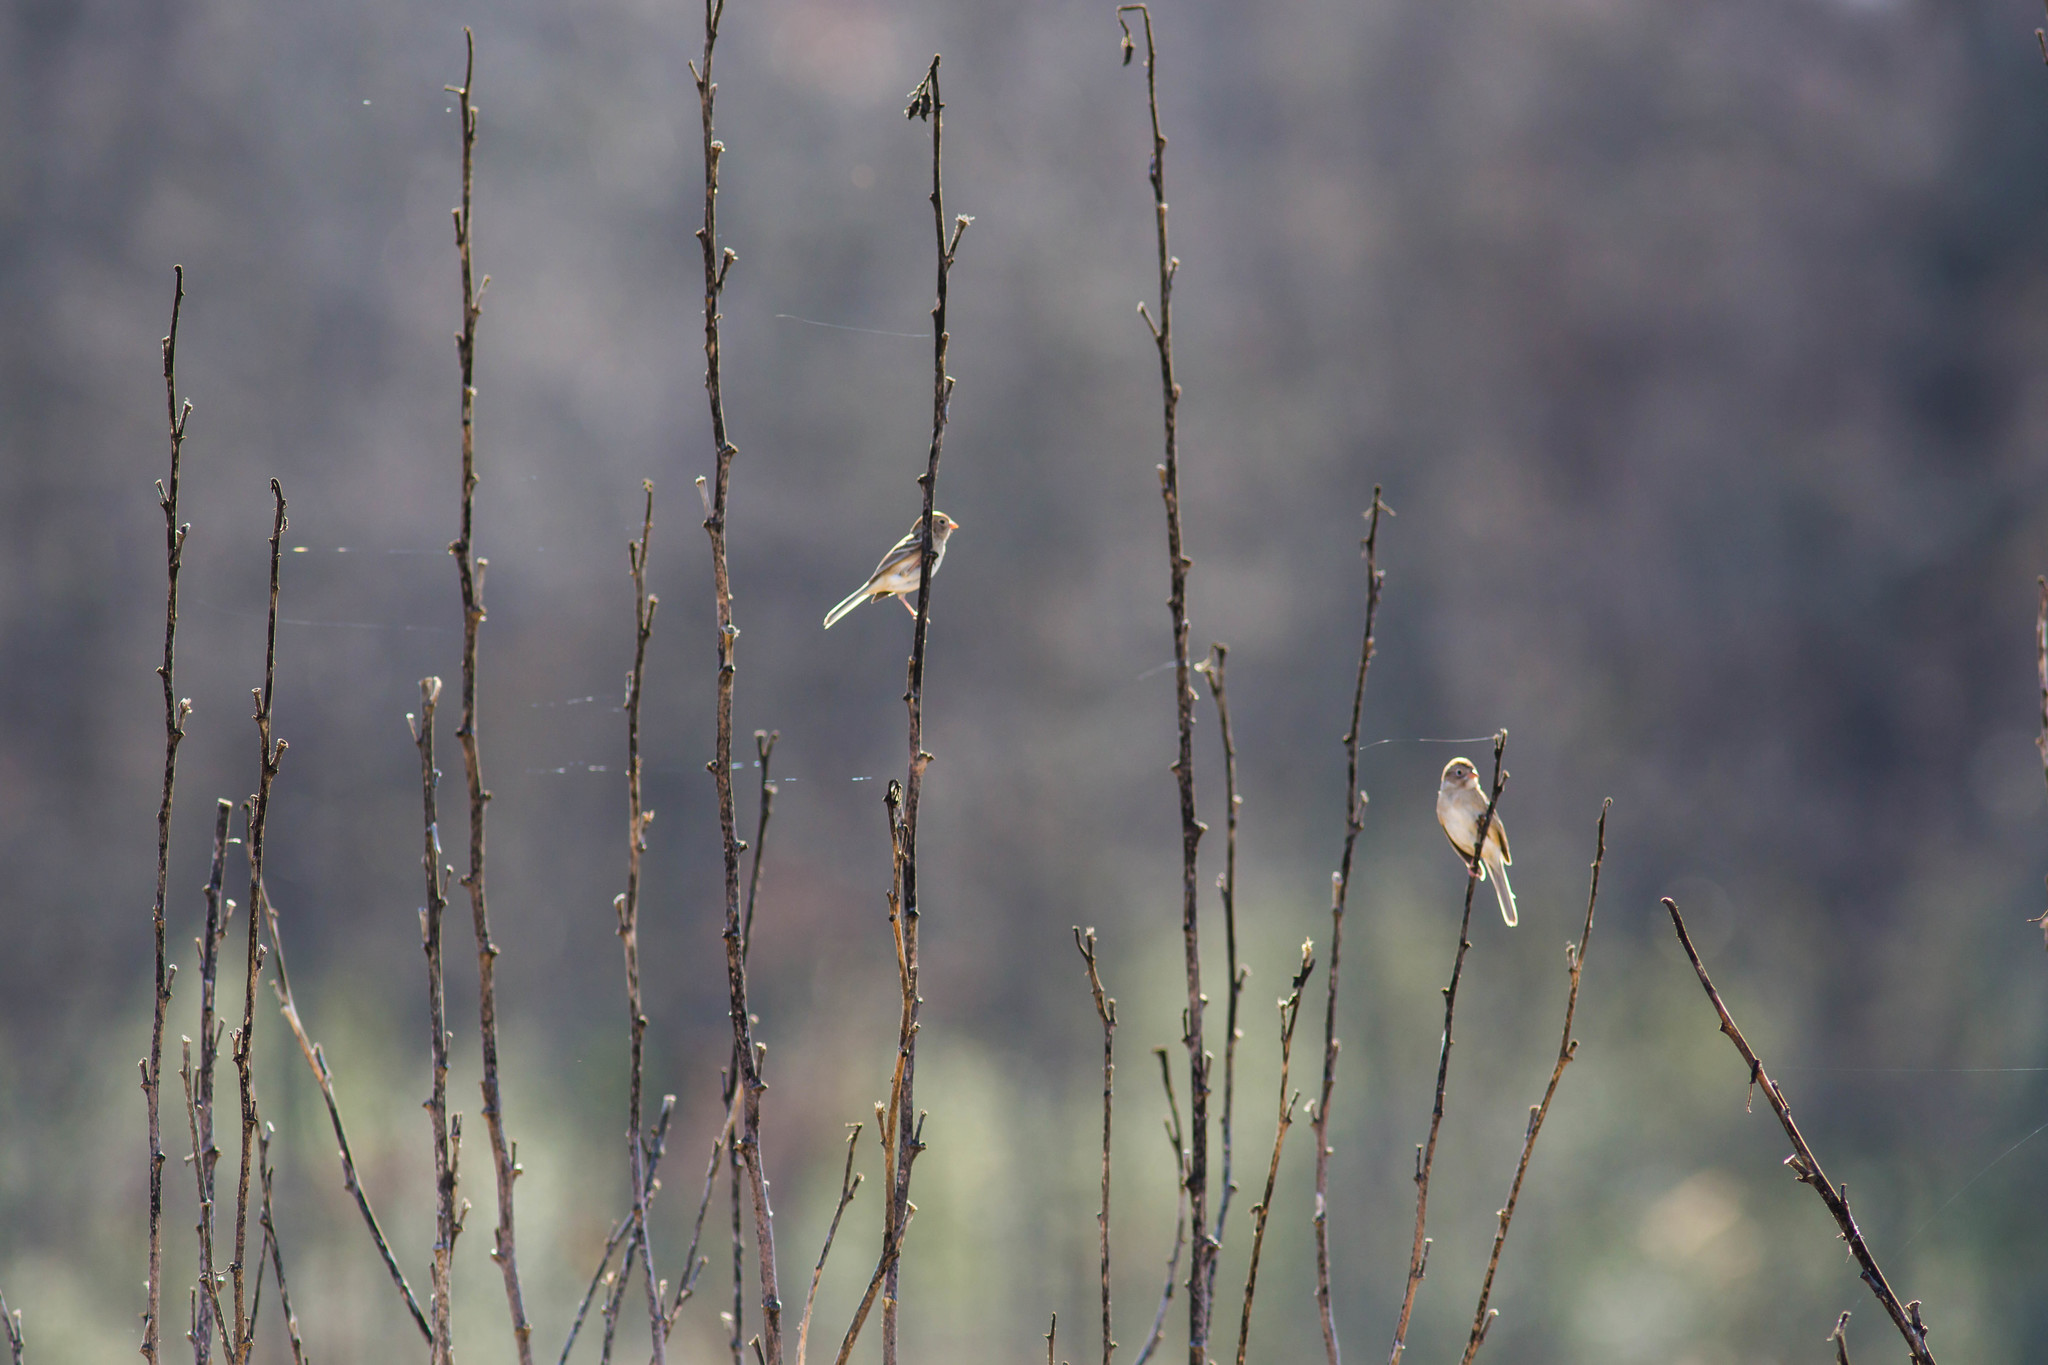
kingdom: Animalia
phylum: Chordata
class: Aves
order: Passeriformes
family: Passerellidae
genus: Spizella
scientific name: Spizella pusilla
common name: Field sparrow
